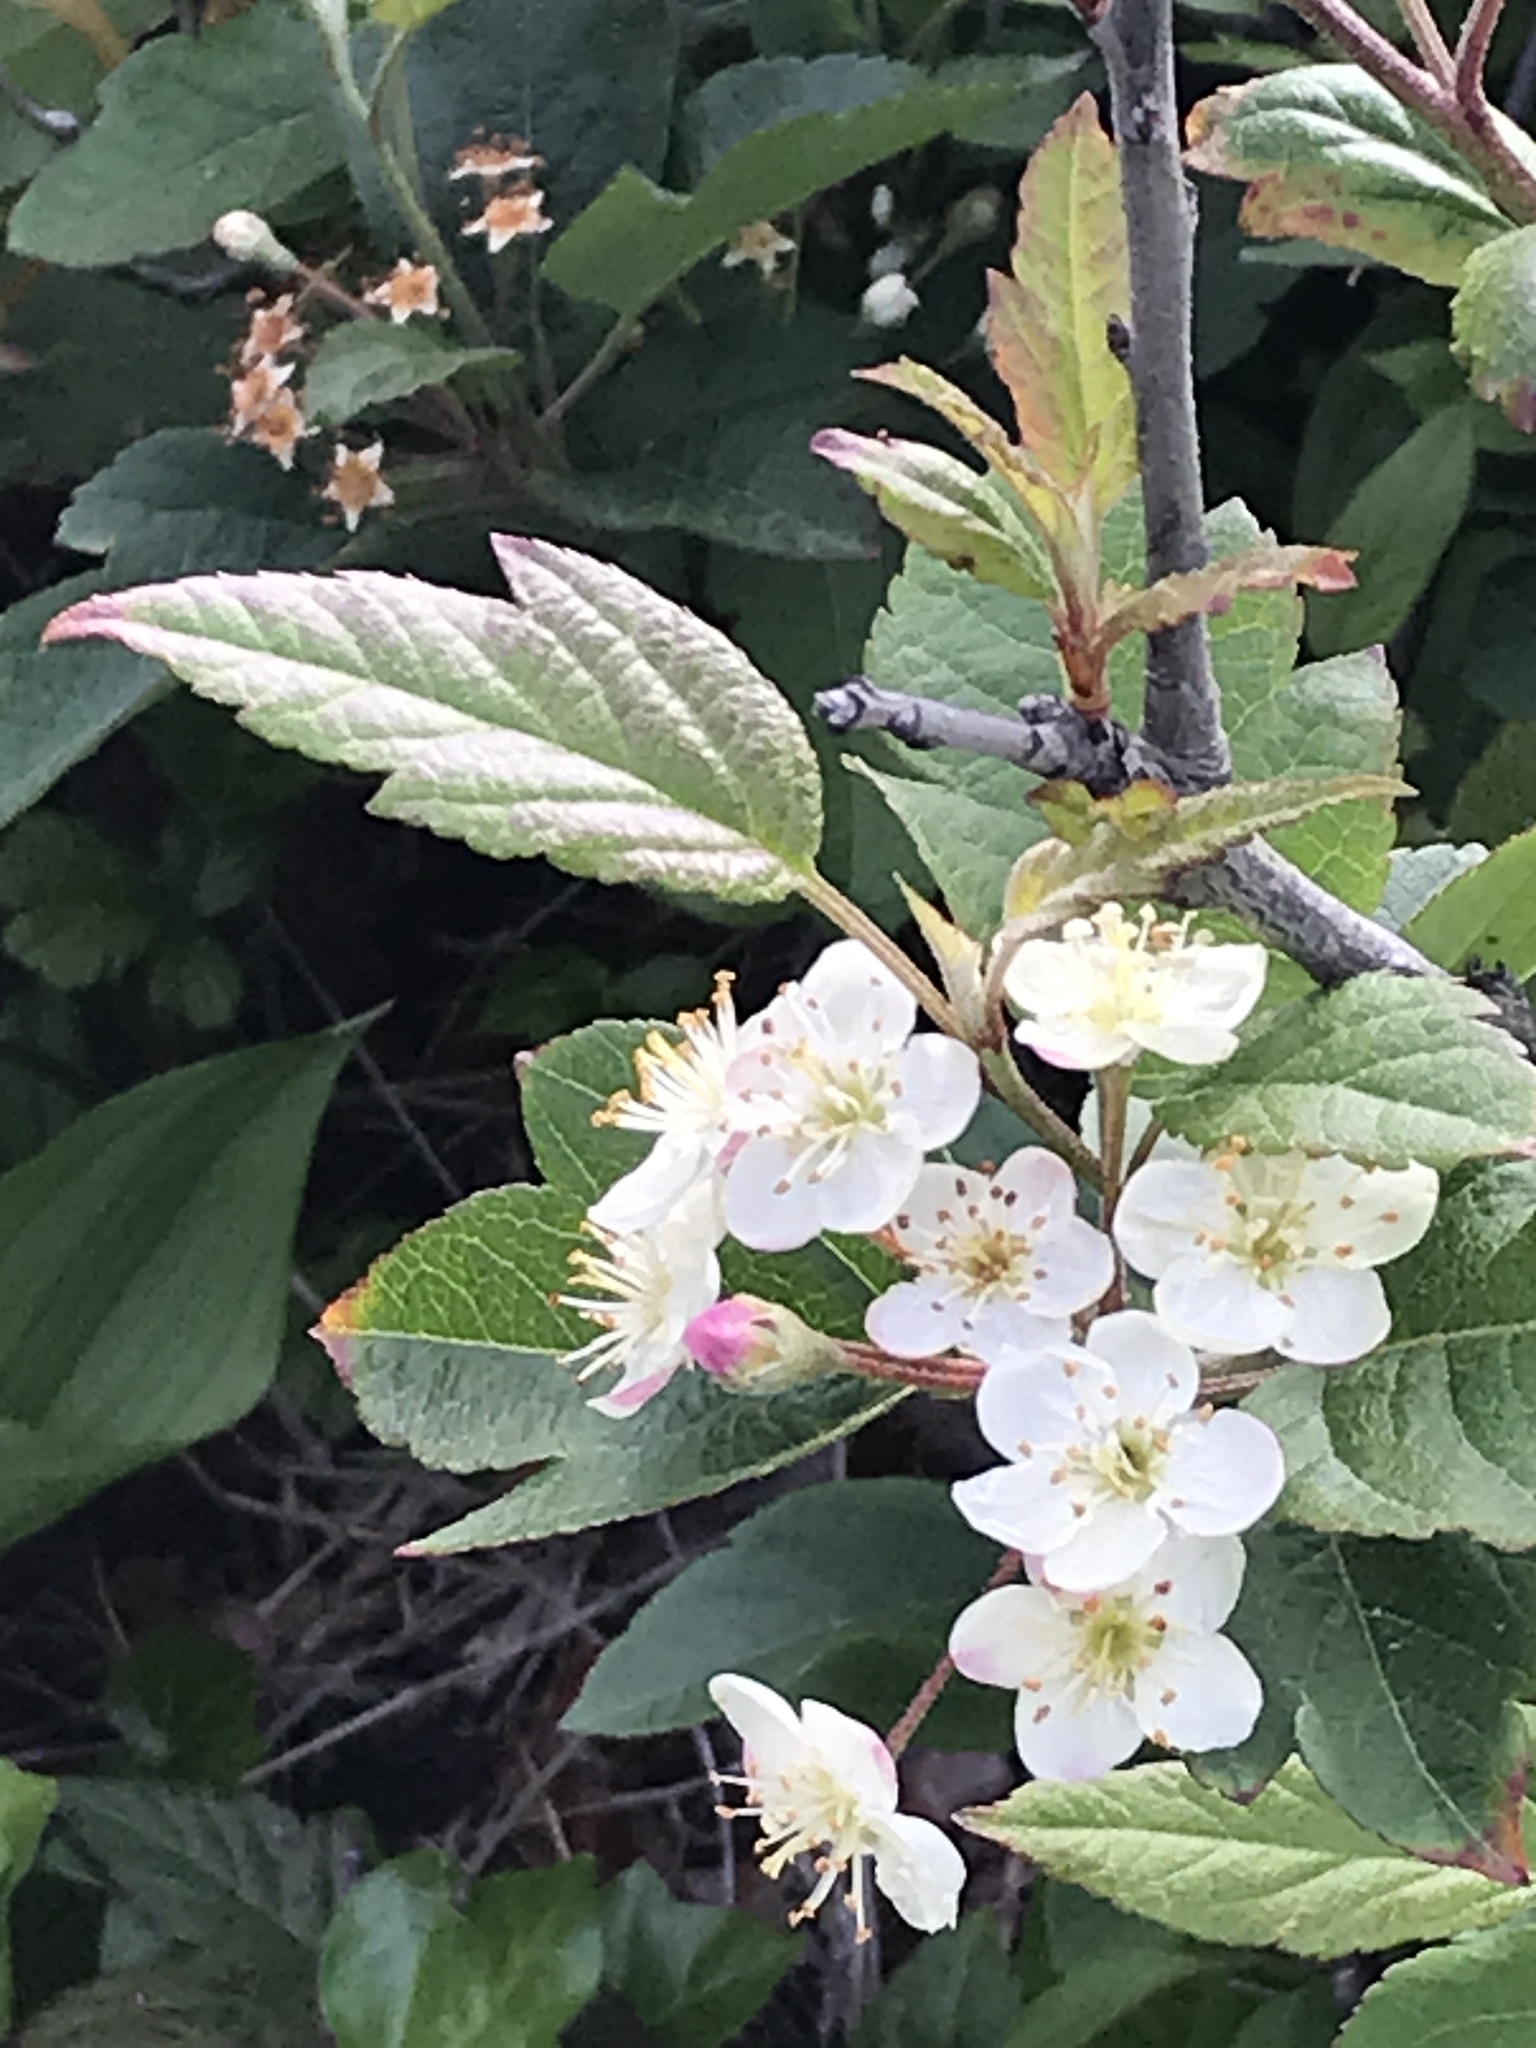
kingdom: Plantae
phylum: Tracheophyta
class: Magnoliopsida
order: Rosales
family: Rosaceae
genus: Malus
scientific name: Malus fusca
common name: Oregon crab apple
